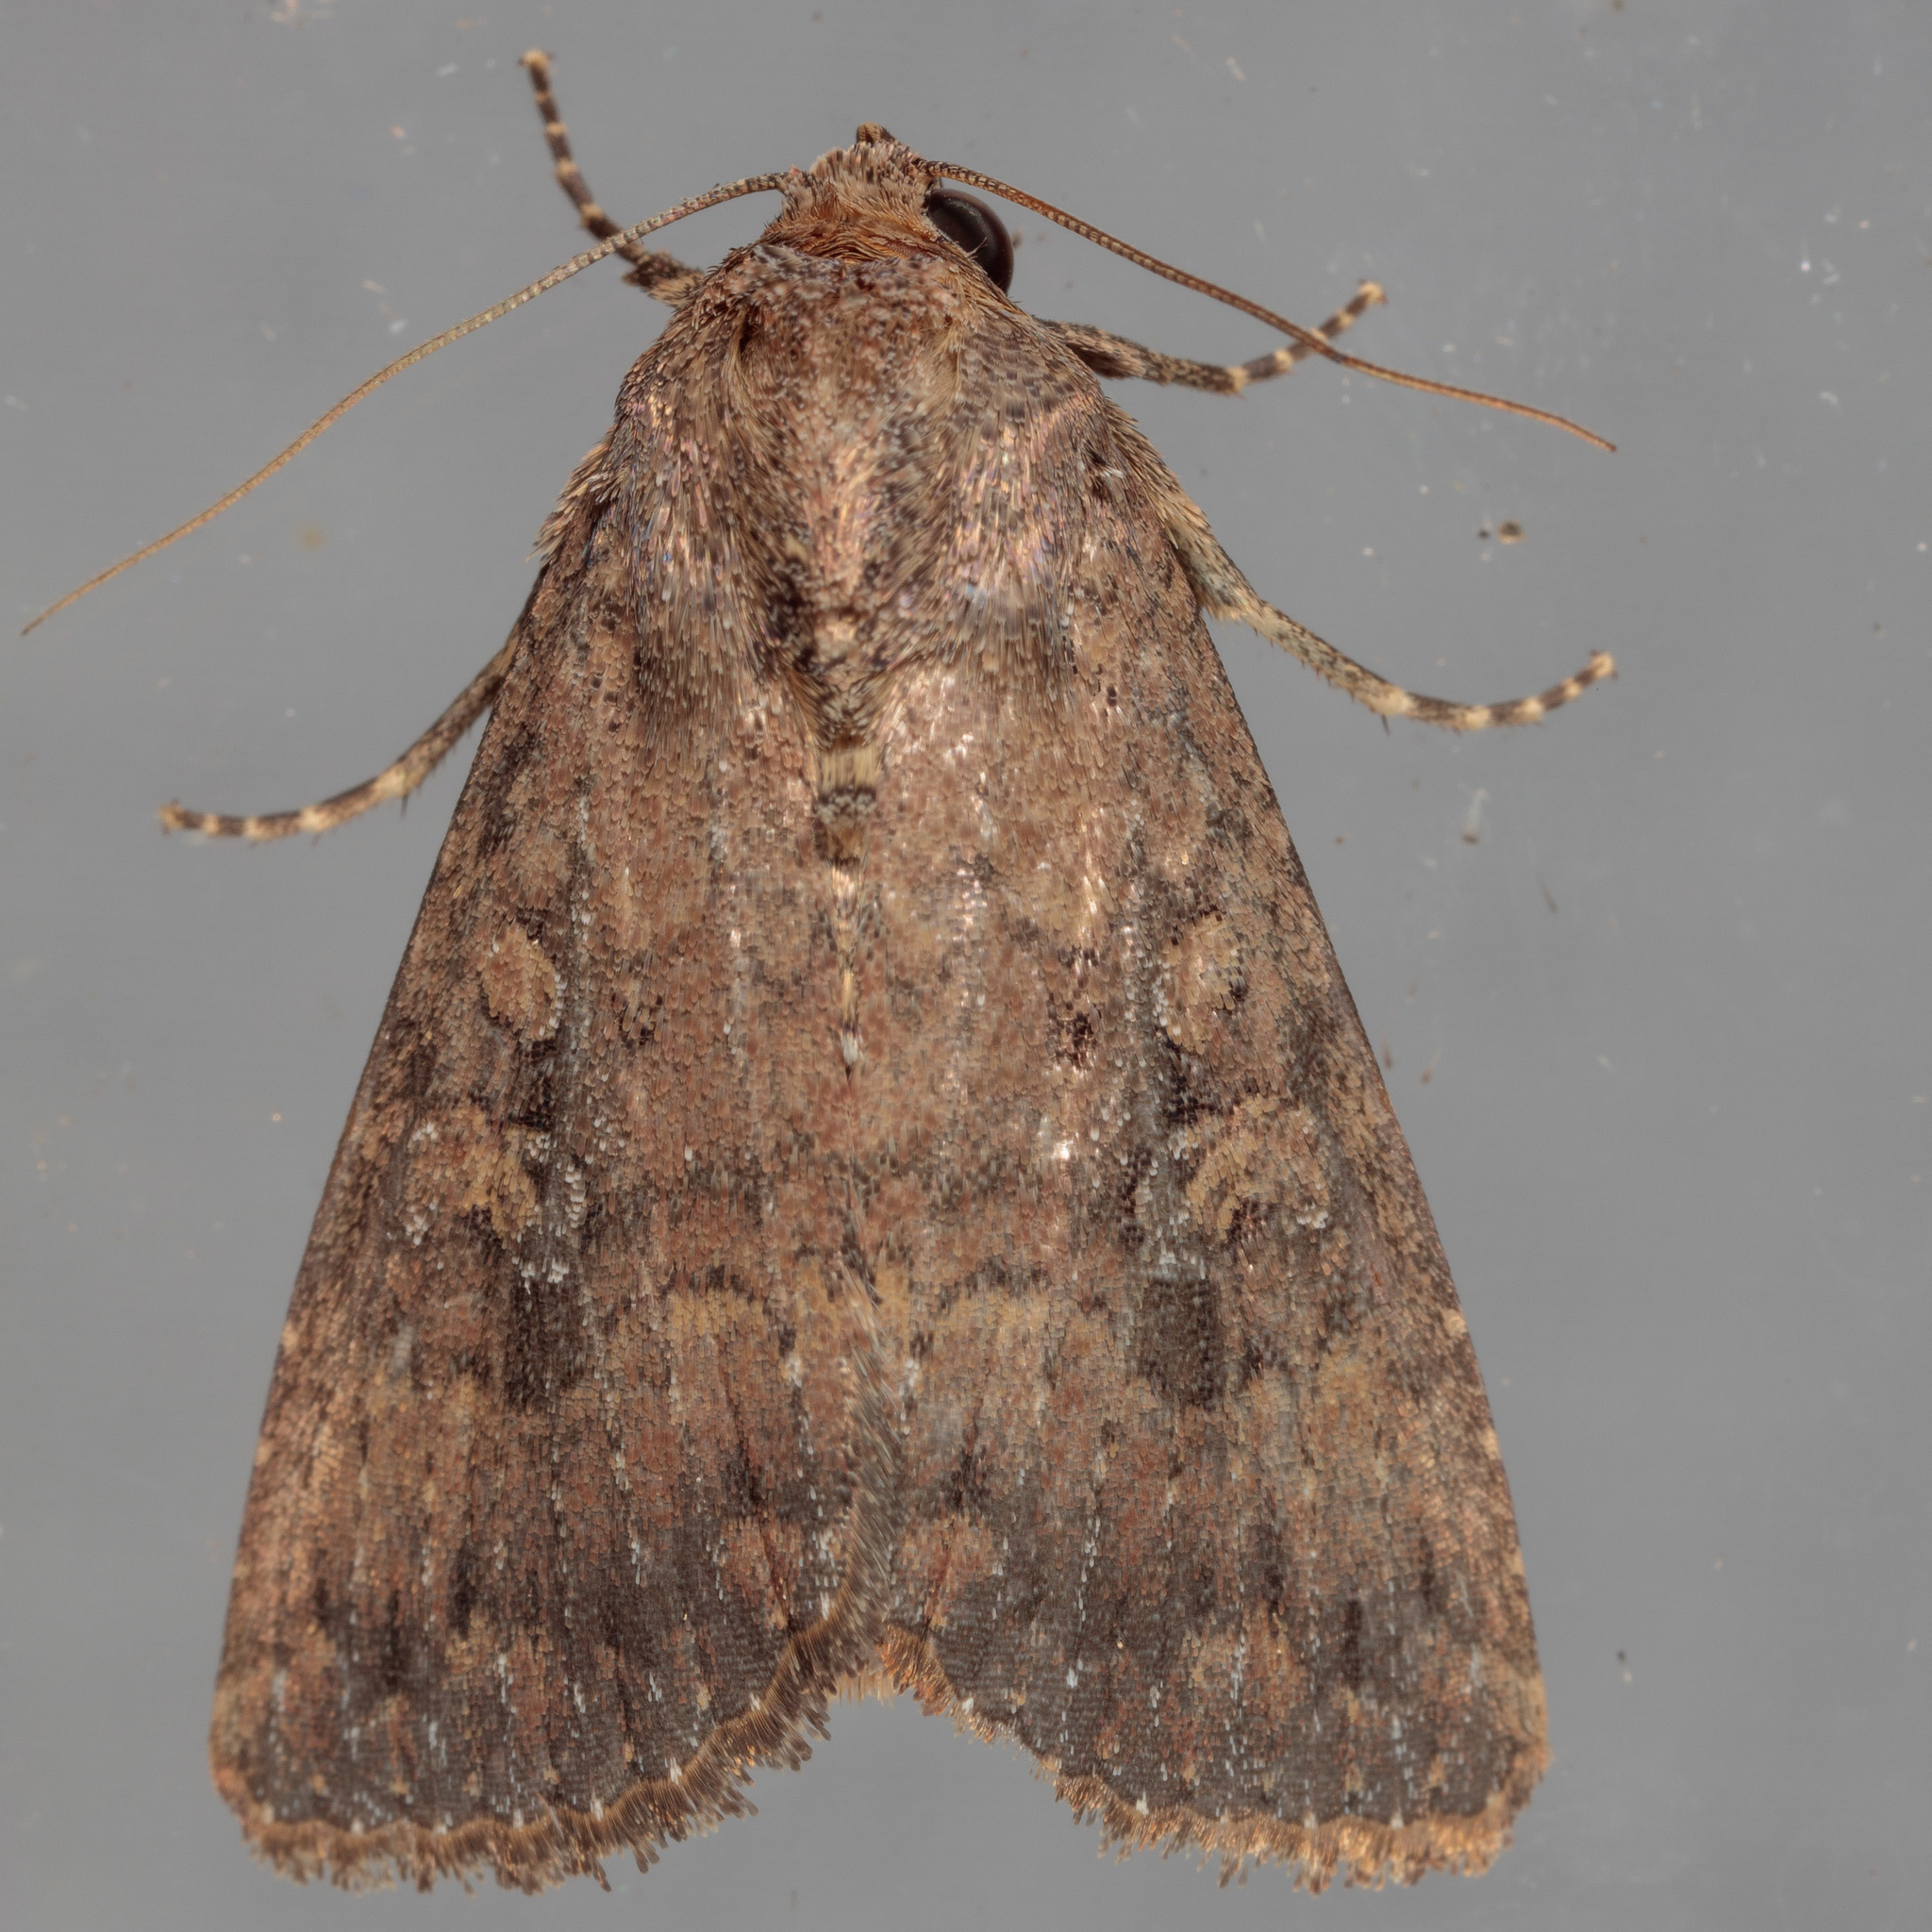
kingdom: Animalia
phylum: Arthropoda
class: Insecta
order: Lepidoptera
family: Noctuidae
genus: Condica
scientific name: Condica sutor
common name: Cobbler moth
